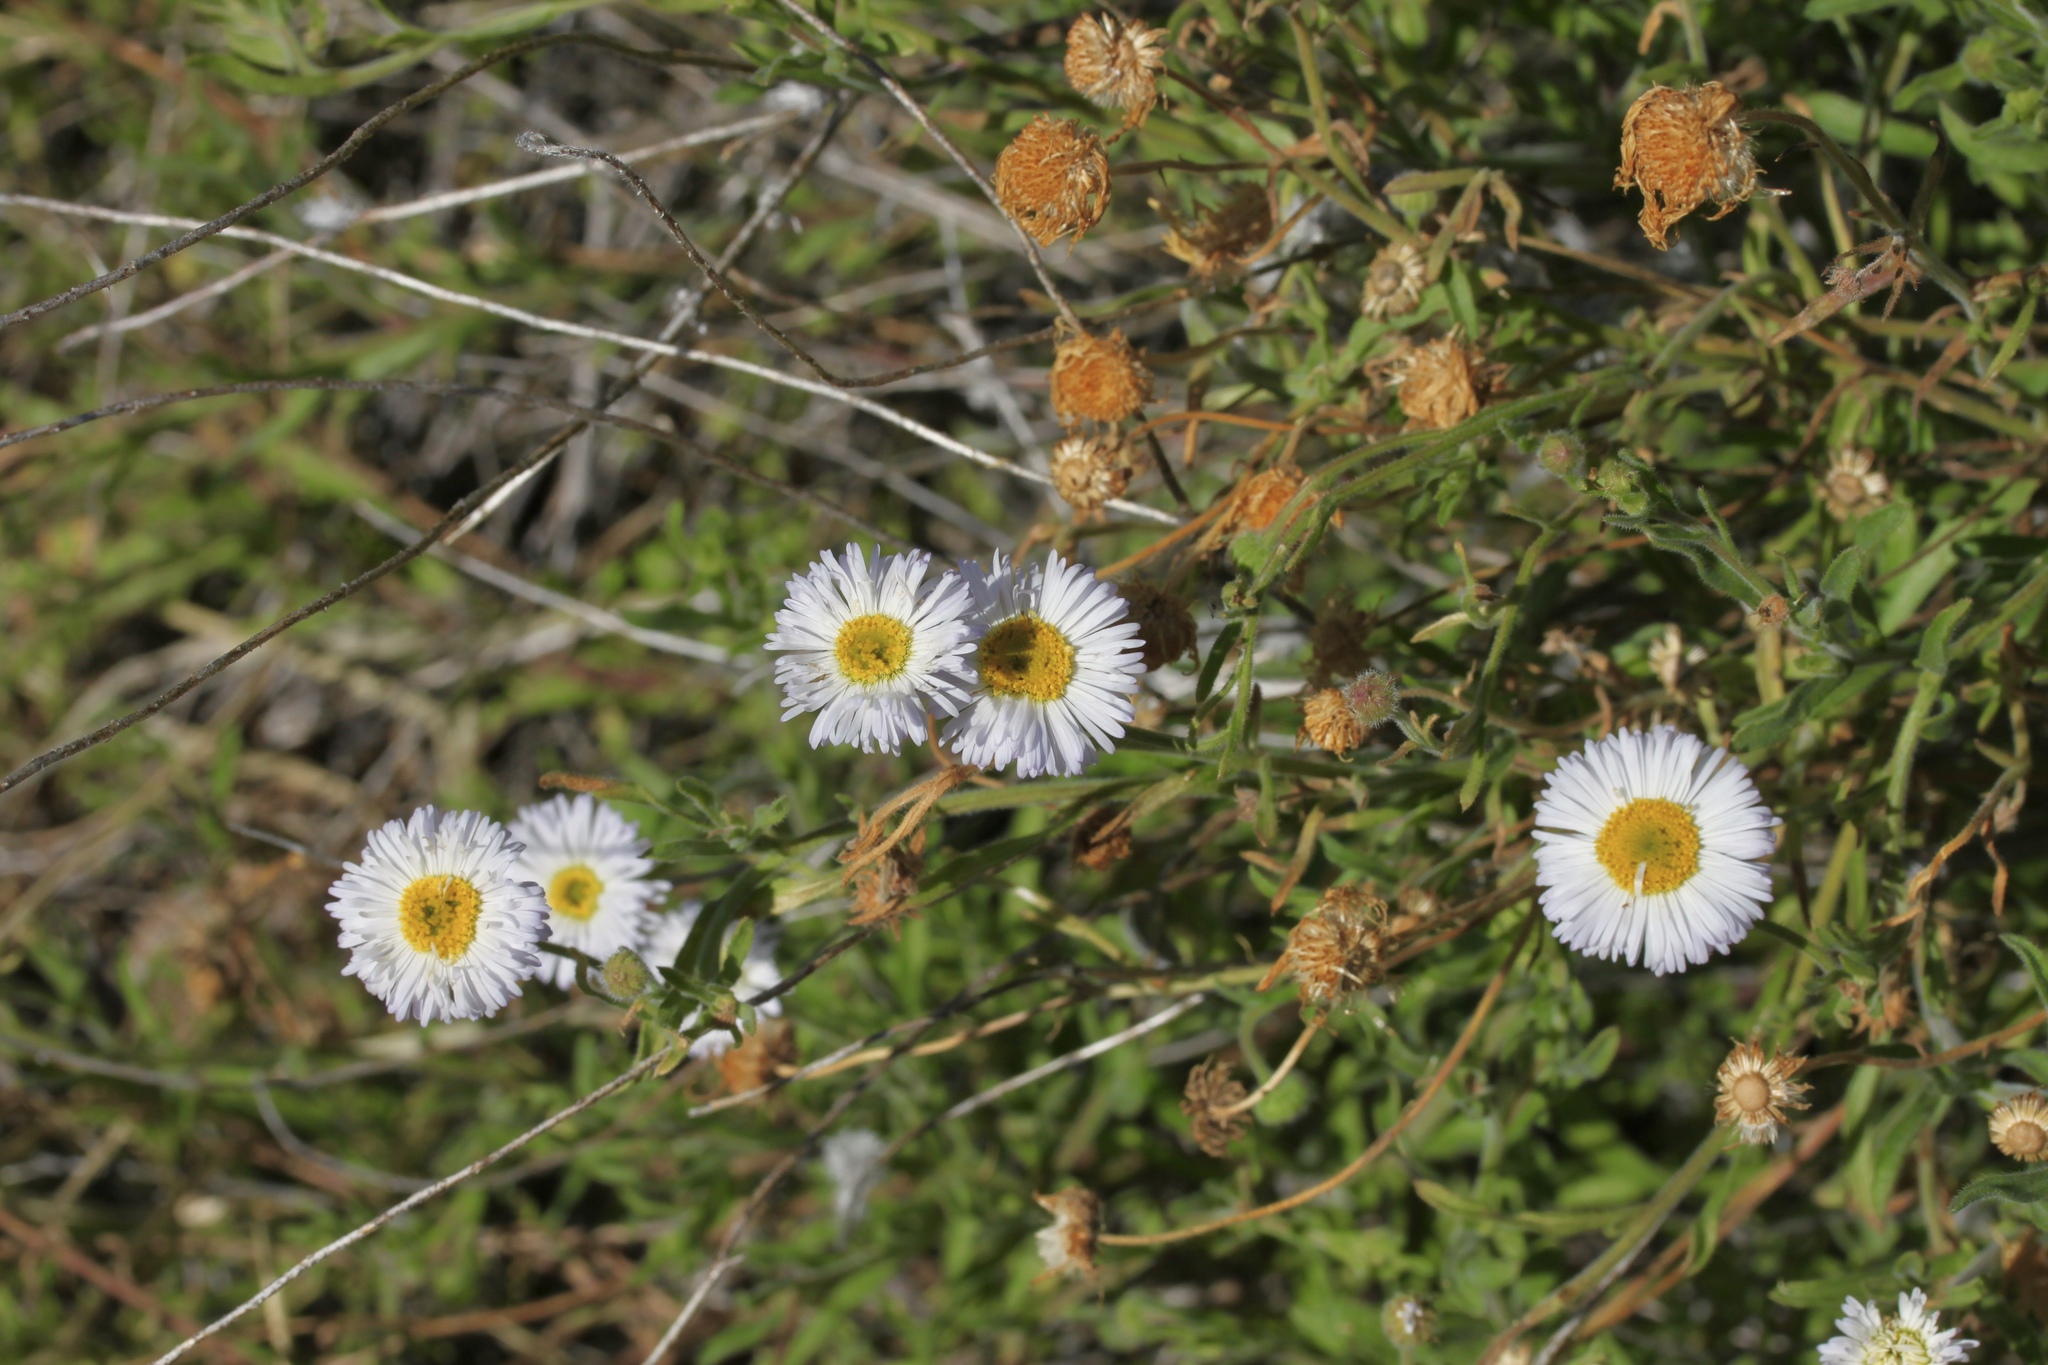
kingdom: Plantae
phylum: Tracheophyta
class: Magnoliopsida
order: Asterales
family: Asteraceae
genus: Erigeron
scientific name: Erigeron divergens
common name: Diffuse fleabane
